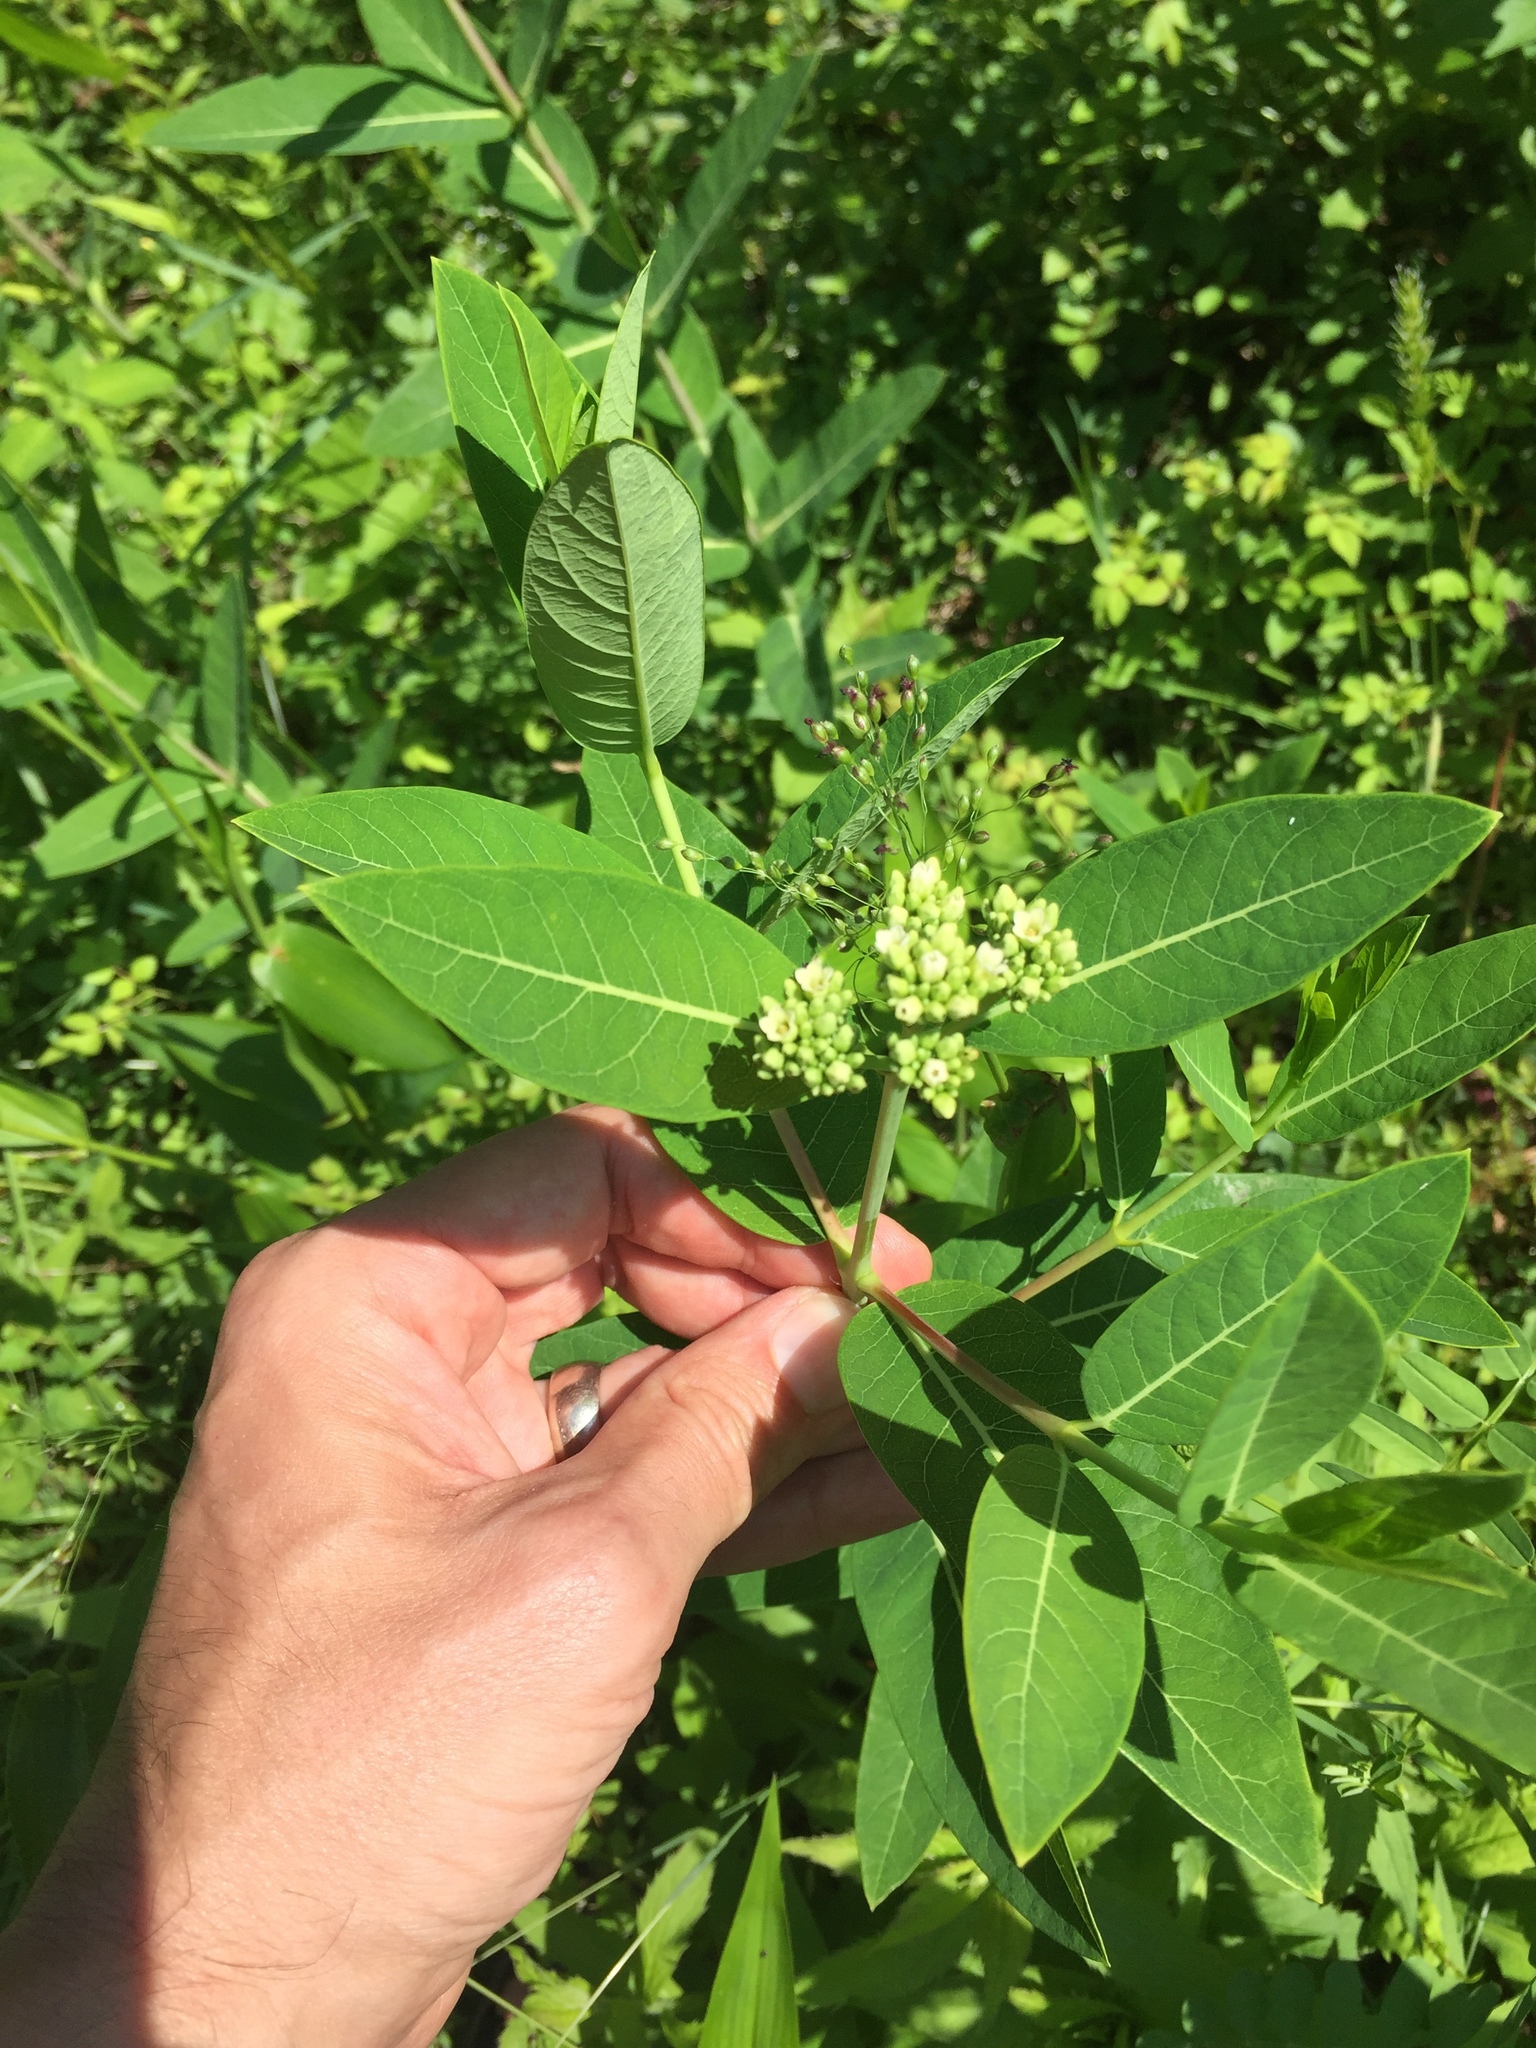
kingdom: Plantae
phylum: Tracheophyta
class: Magnoliopsida
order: Gentianales
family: Apocynaceae
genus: Apocynum
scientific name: Apocynum cannabinum
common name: Hemp dogbane
